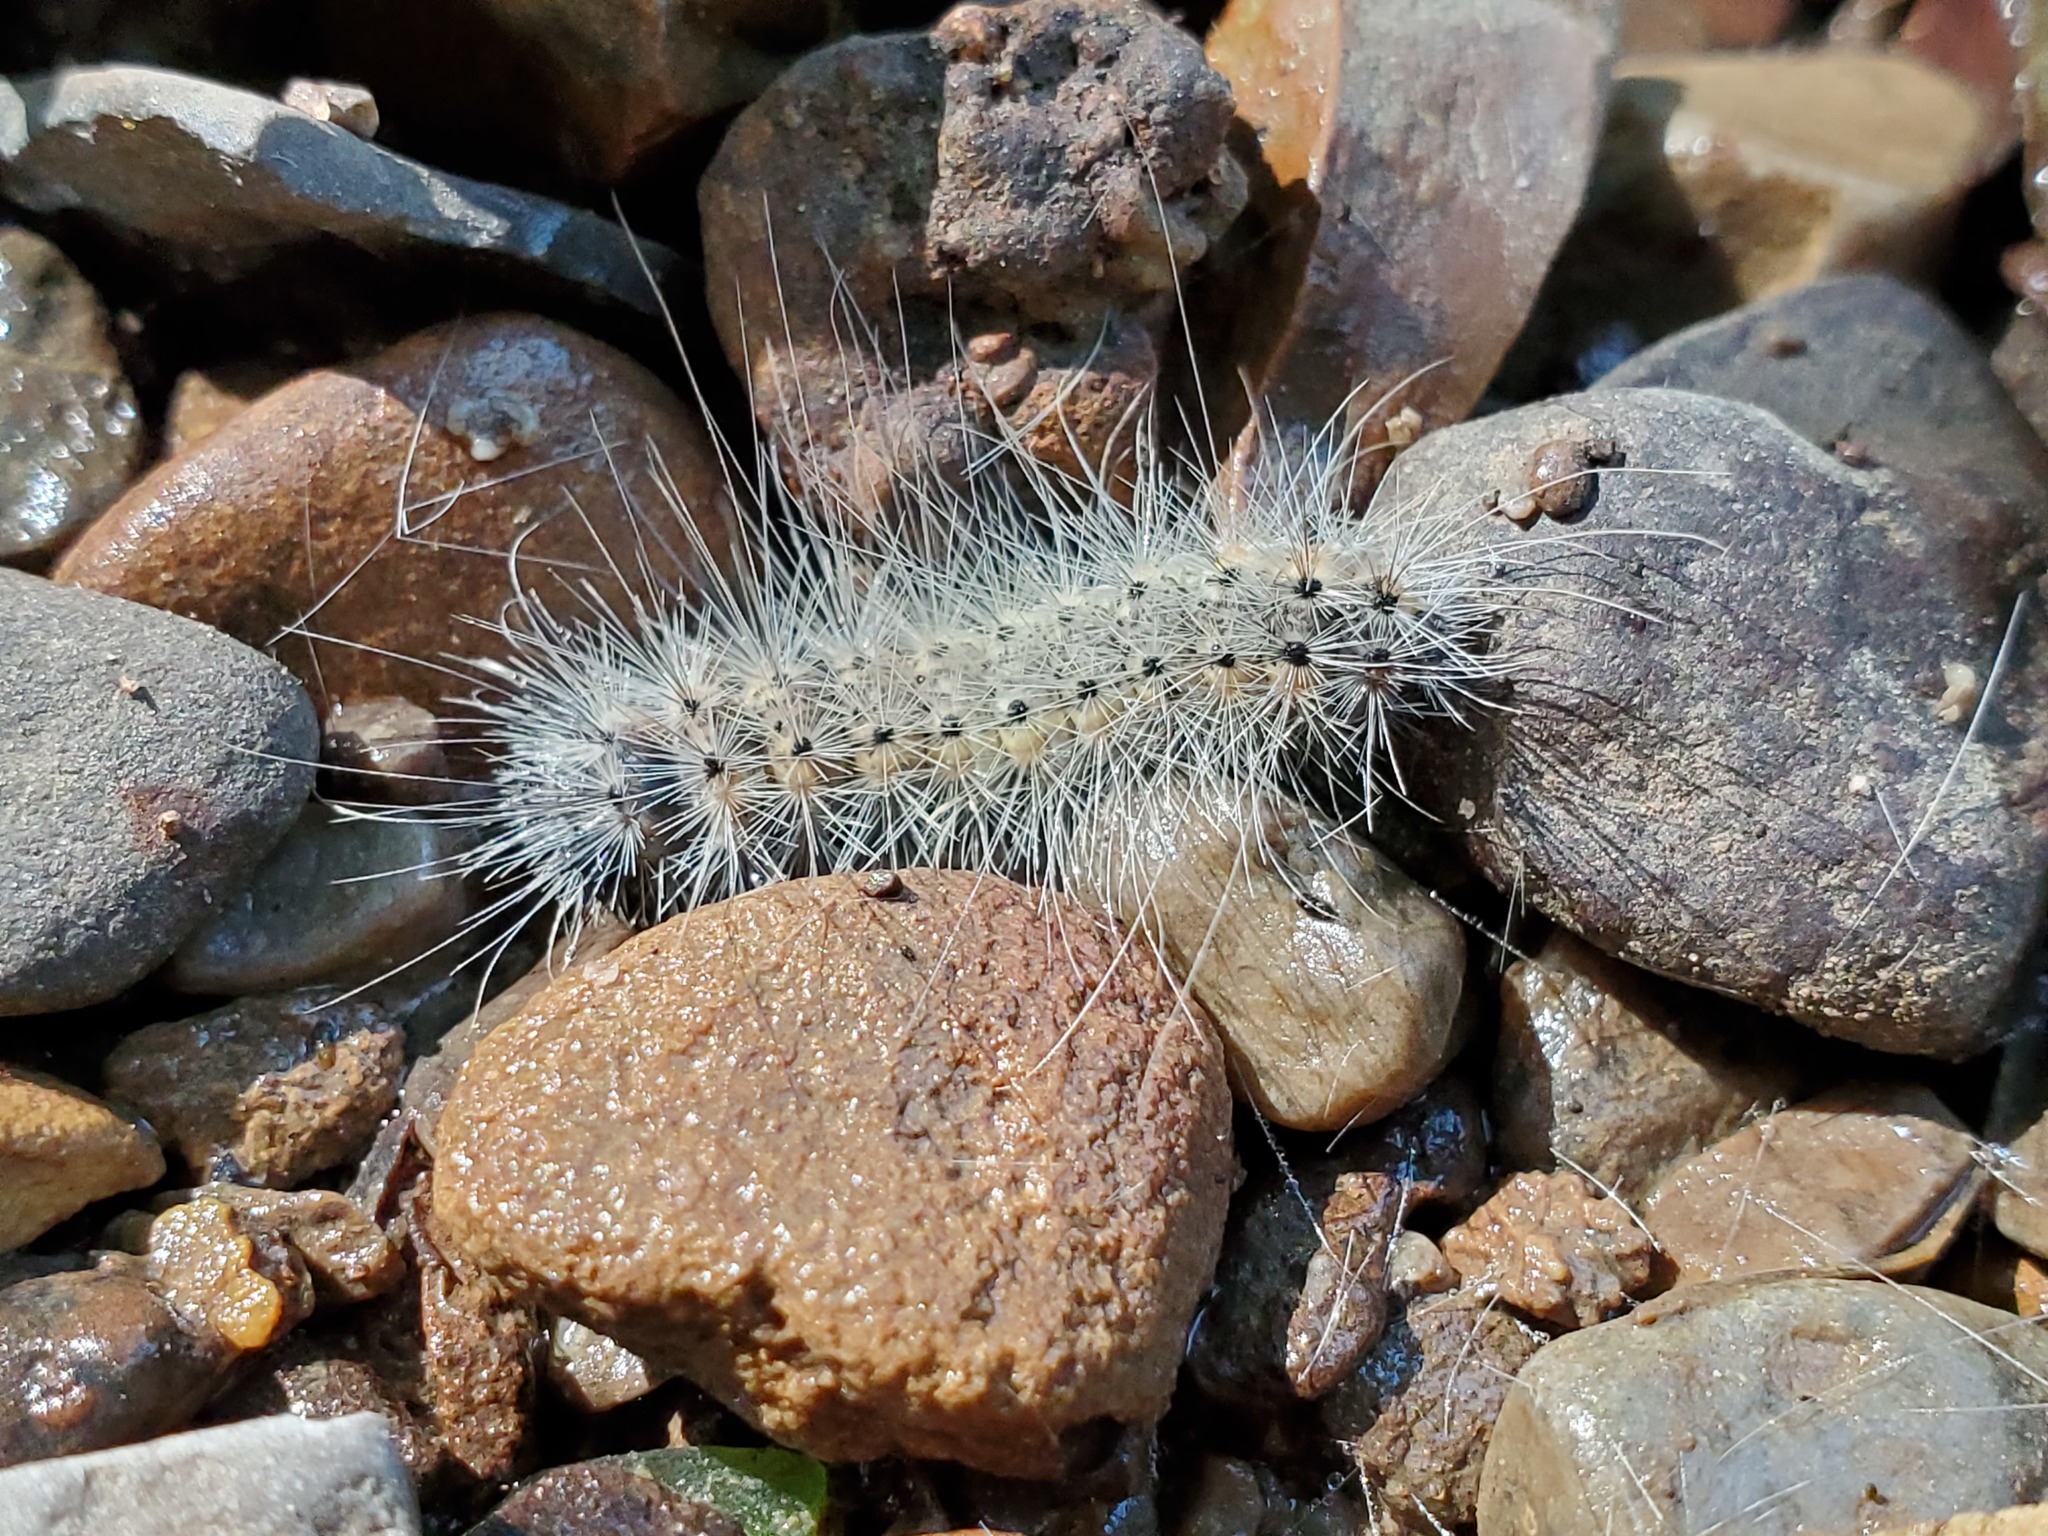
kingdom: Animalia
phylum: Arthropoda
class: Insecta
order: Lepidoptera
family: Erebidae
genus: Hyphantria
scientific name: Hyphantria cunea
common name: American white moth
